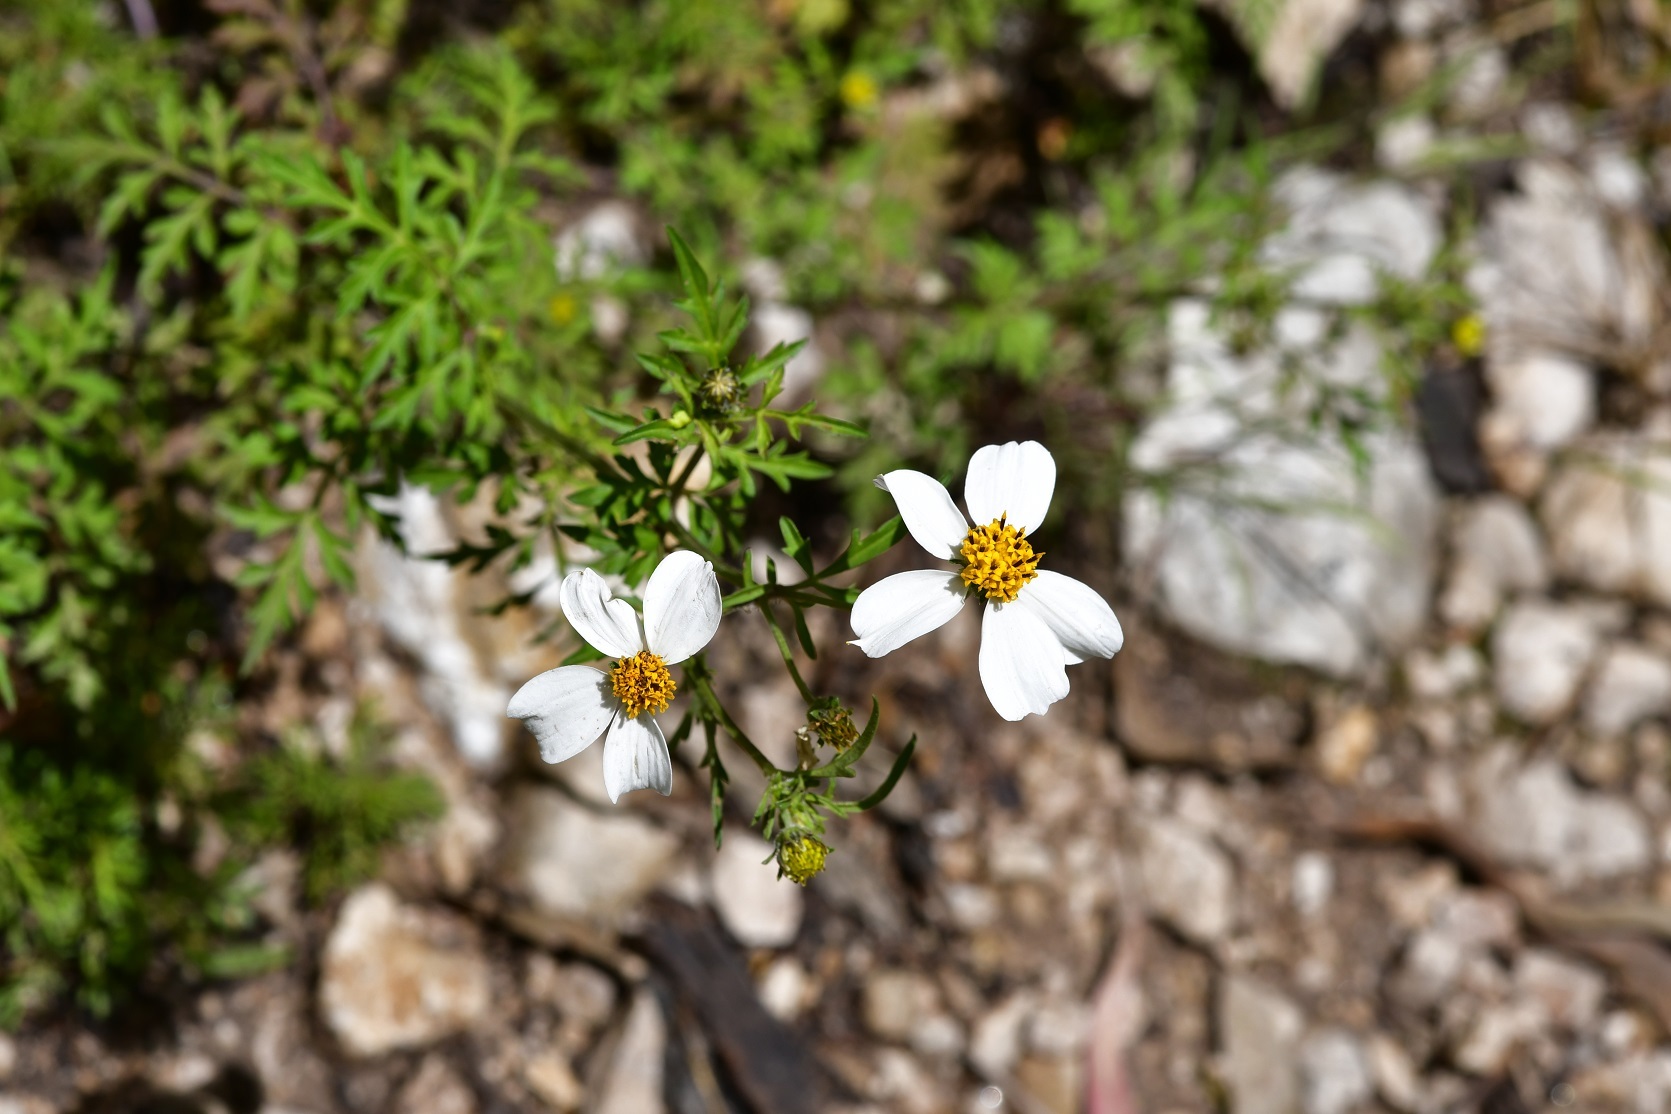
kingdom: Plantae
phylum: Tracheophyta
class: Magnoliopsida
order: Asterales
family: Asteraceae
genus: Bidens
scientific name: Bidens chrysanthemifolia
